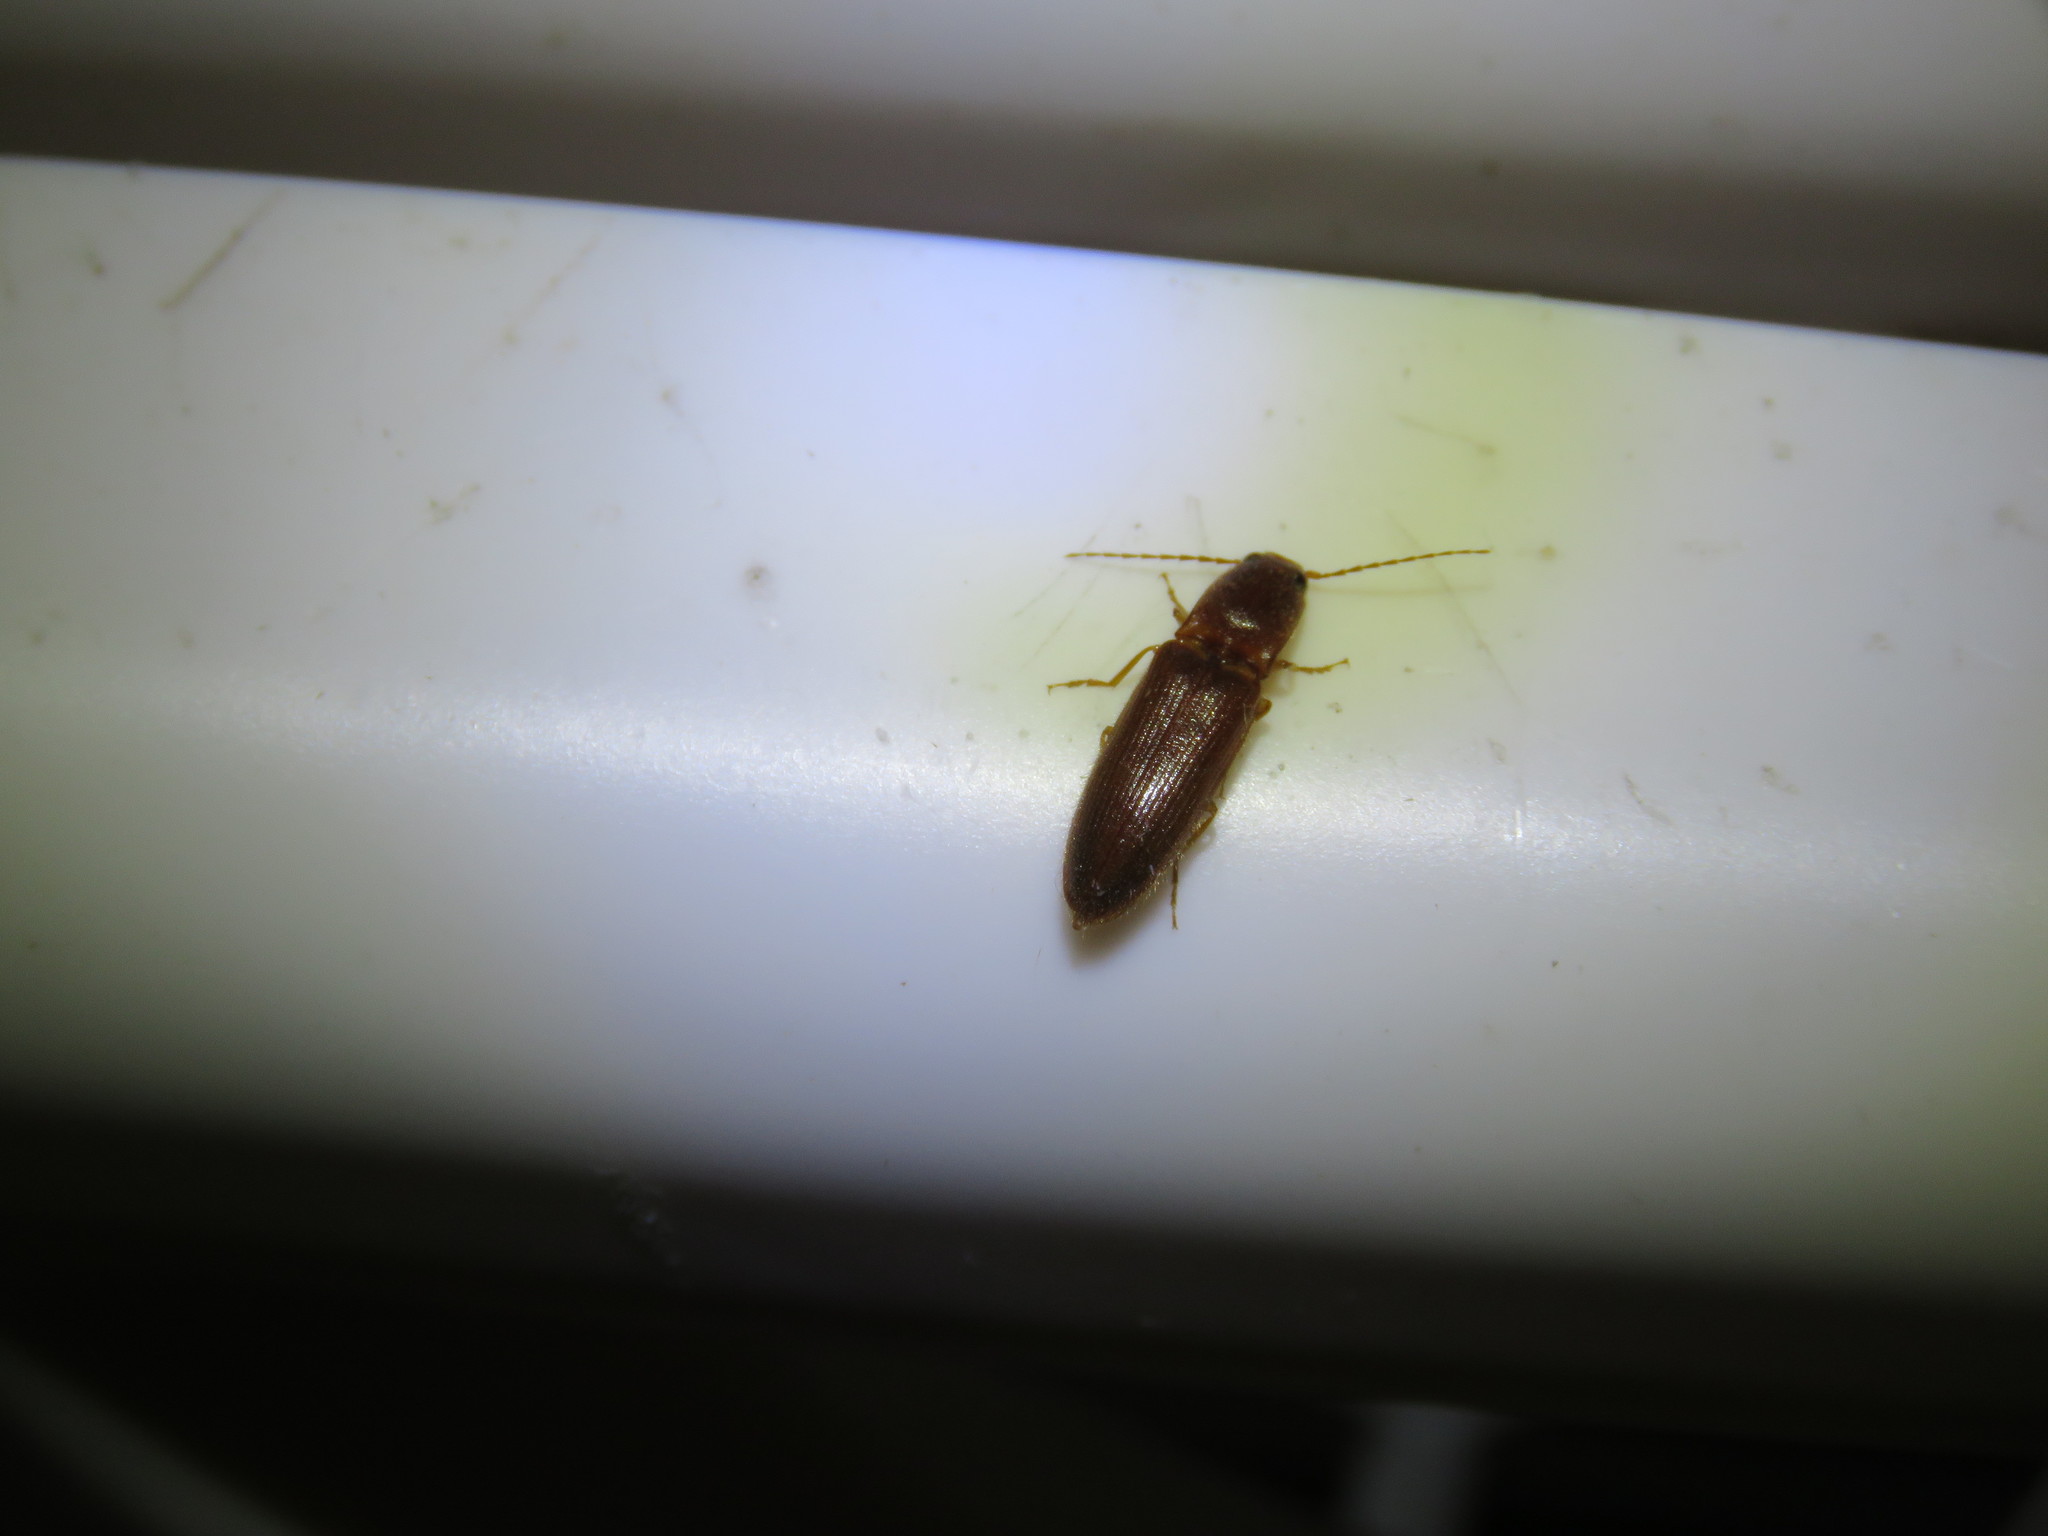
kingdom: Animalia
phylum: Arthropoda
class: Insecta
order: Coleoptera
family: Elateridae
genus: Megapenthes
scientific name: Megapenthes
